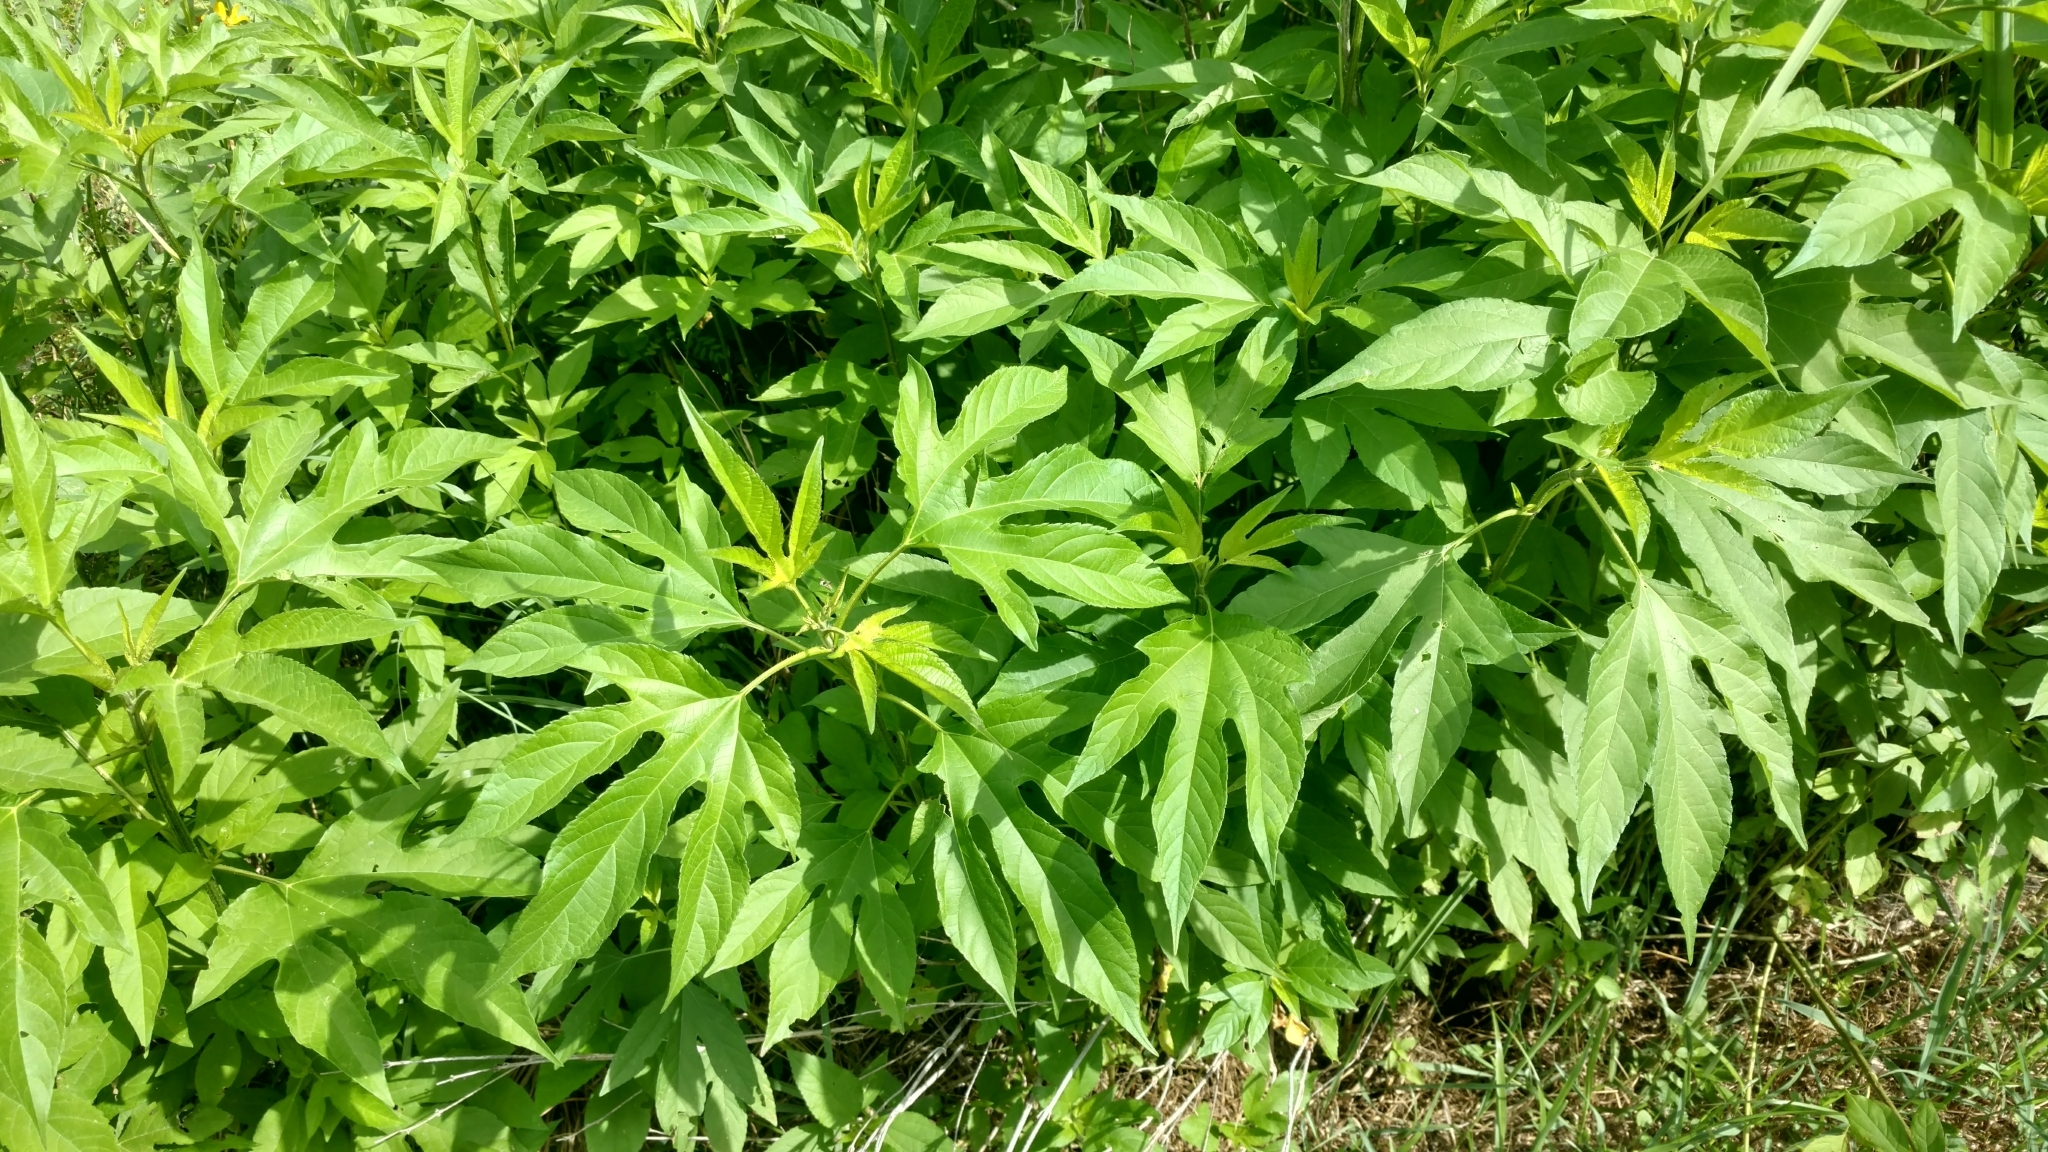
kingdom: Plantae
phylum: Tracheophyta
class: Magnoliopsida
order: Asterales
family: Asteraceae
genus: Ambrosia
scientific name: Ambrosia trifida
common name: Giant ragweed
